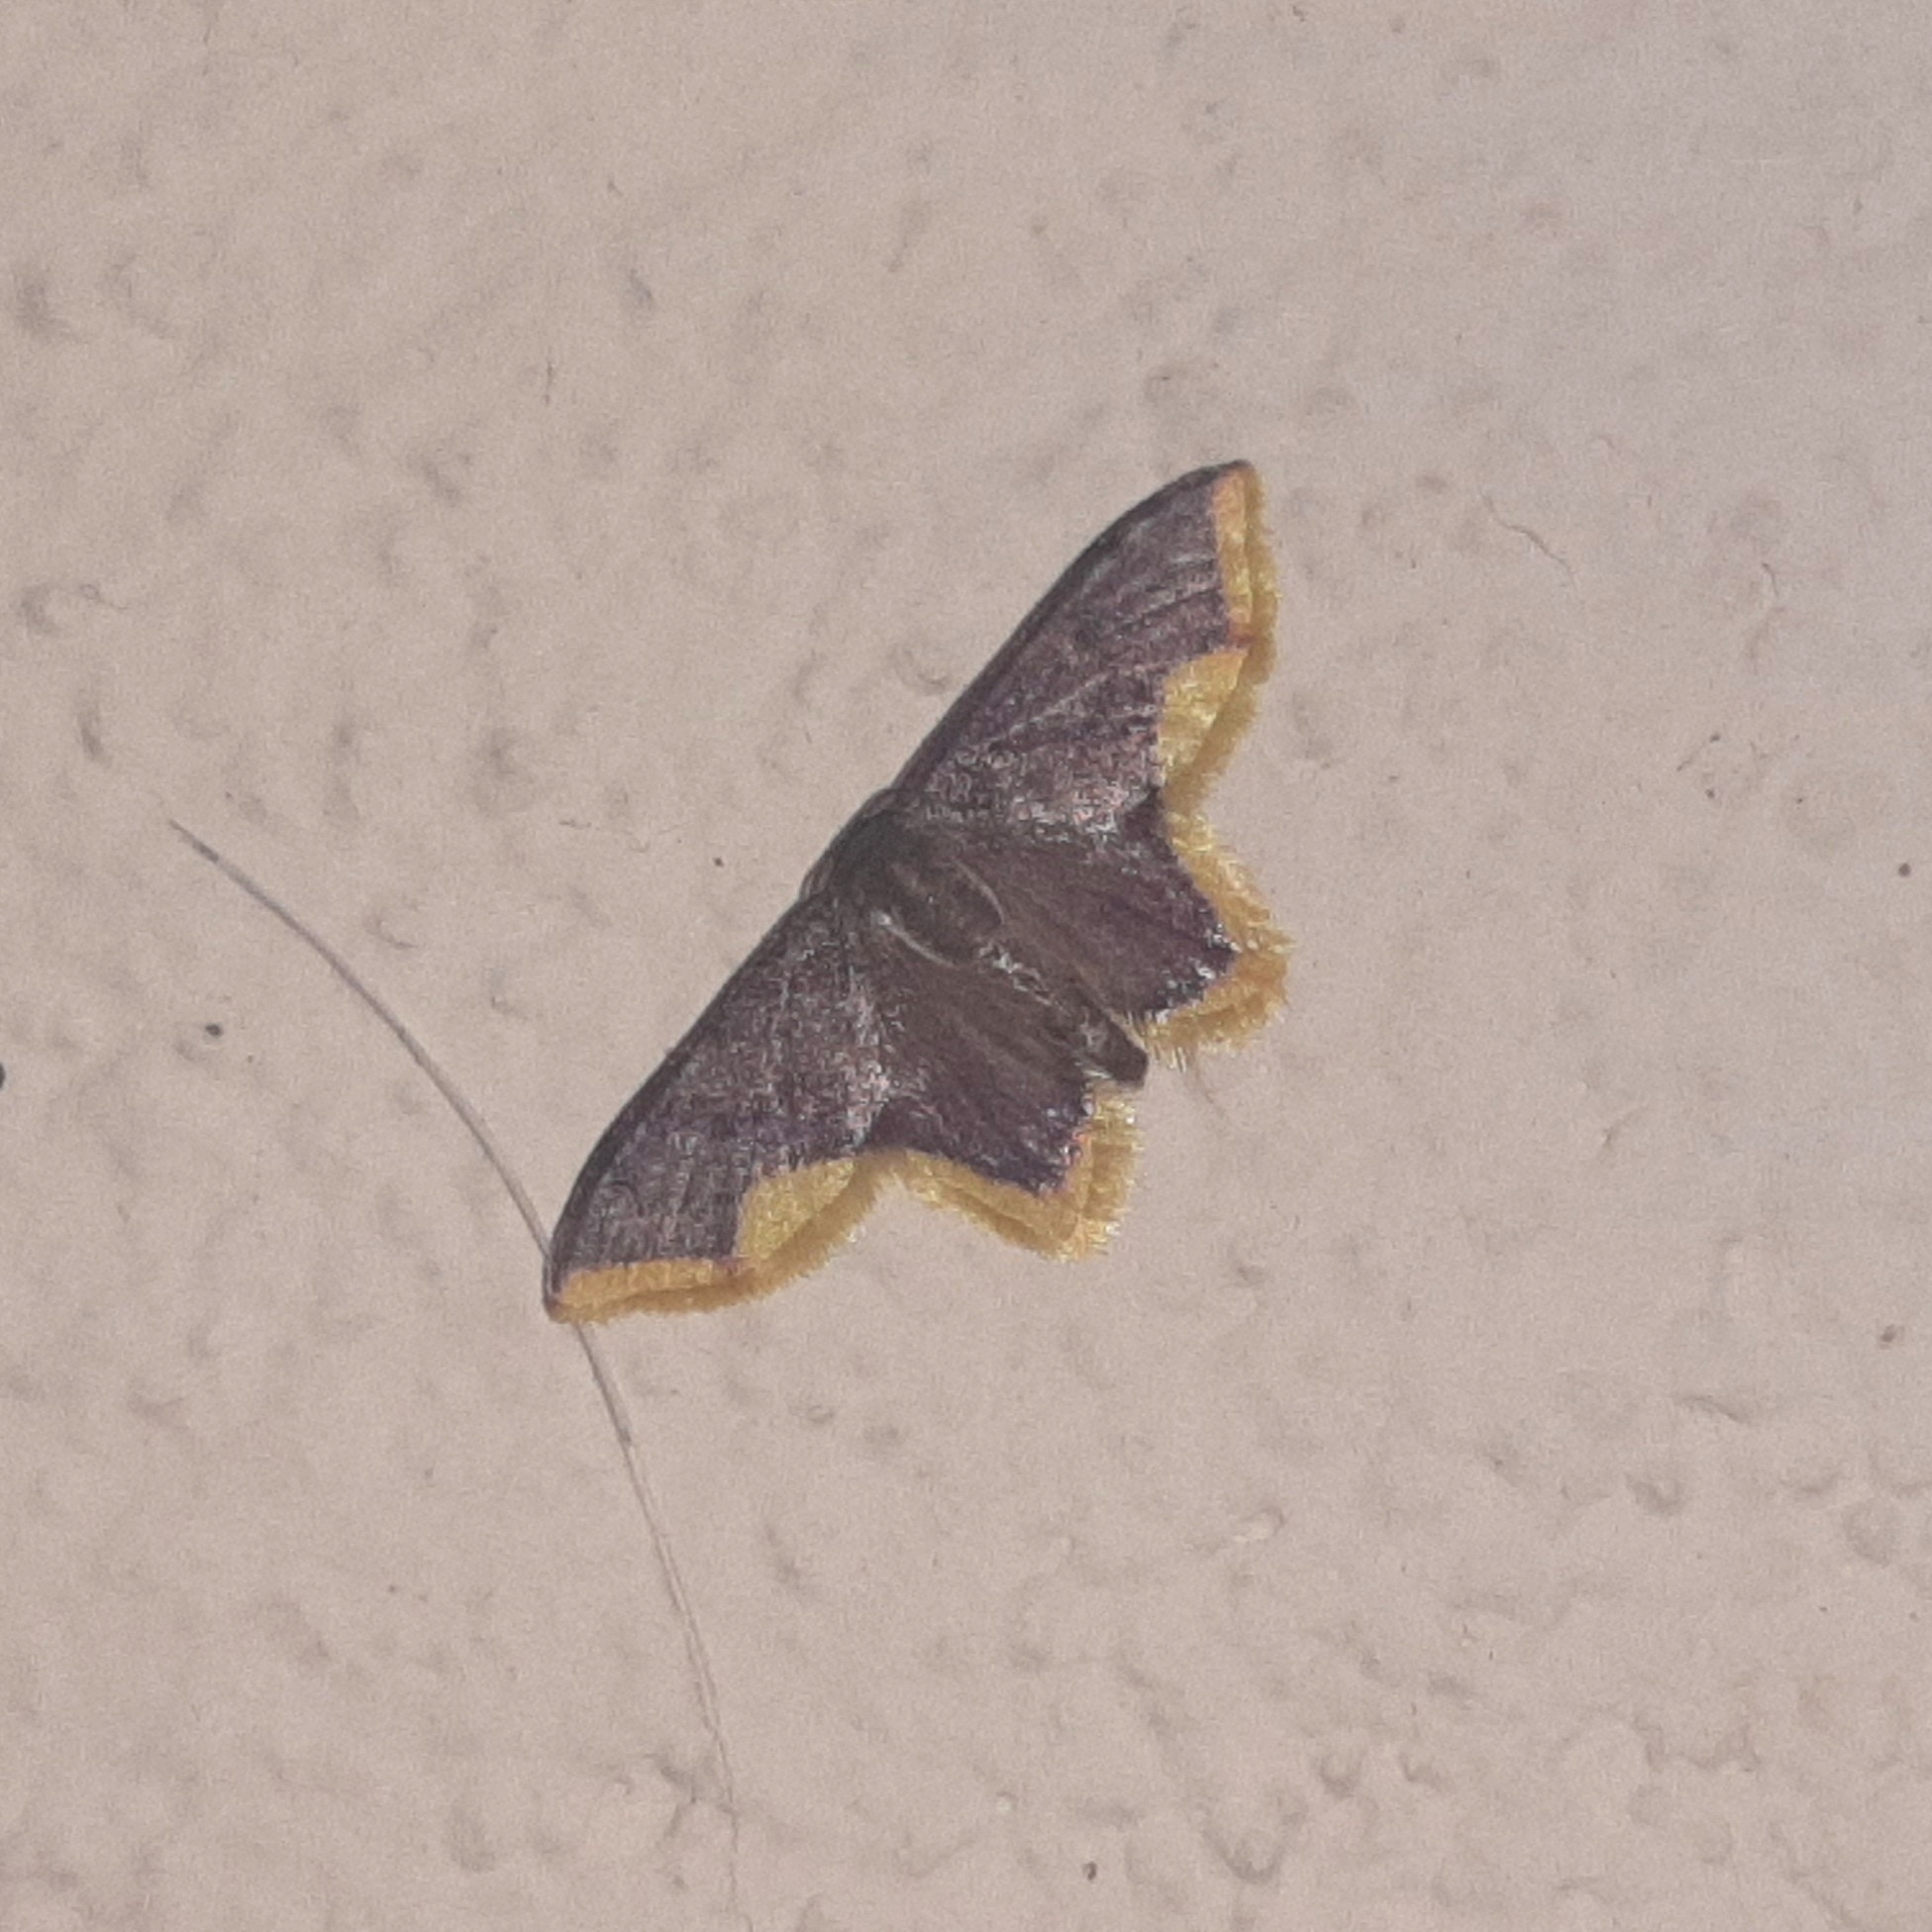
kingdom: Animalia
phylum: Arthropoda
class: Insecta
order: Lepidoptera
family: Geometridae
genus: Tricentrogyna
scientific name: Tricentrogyna violescens
